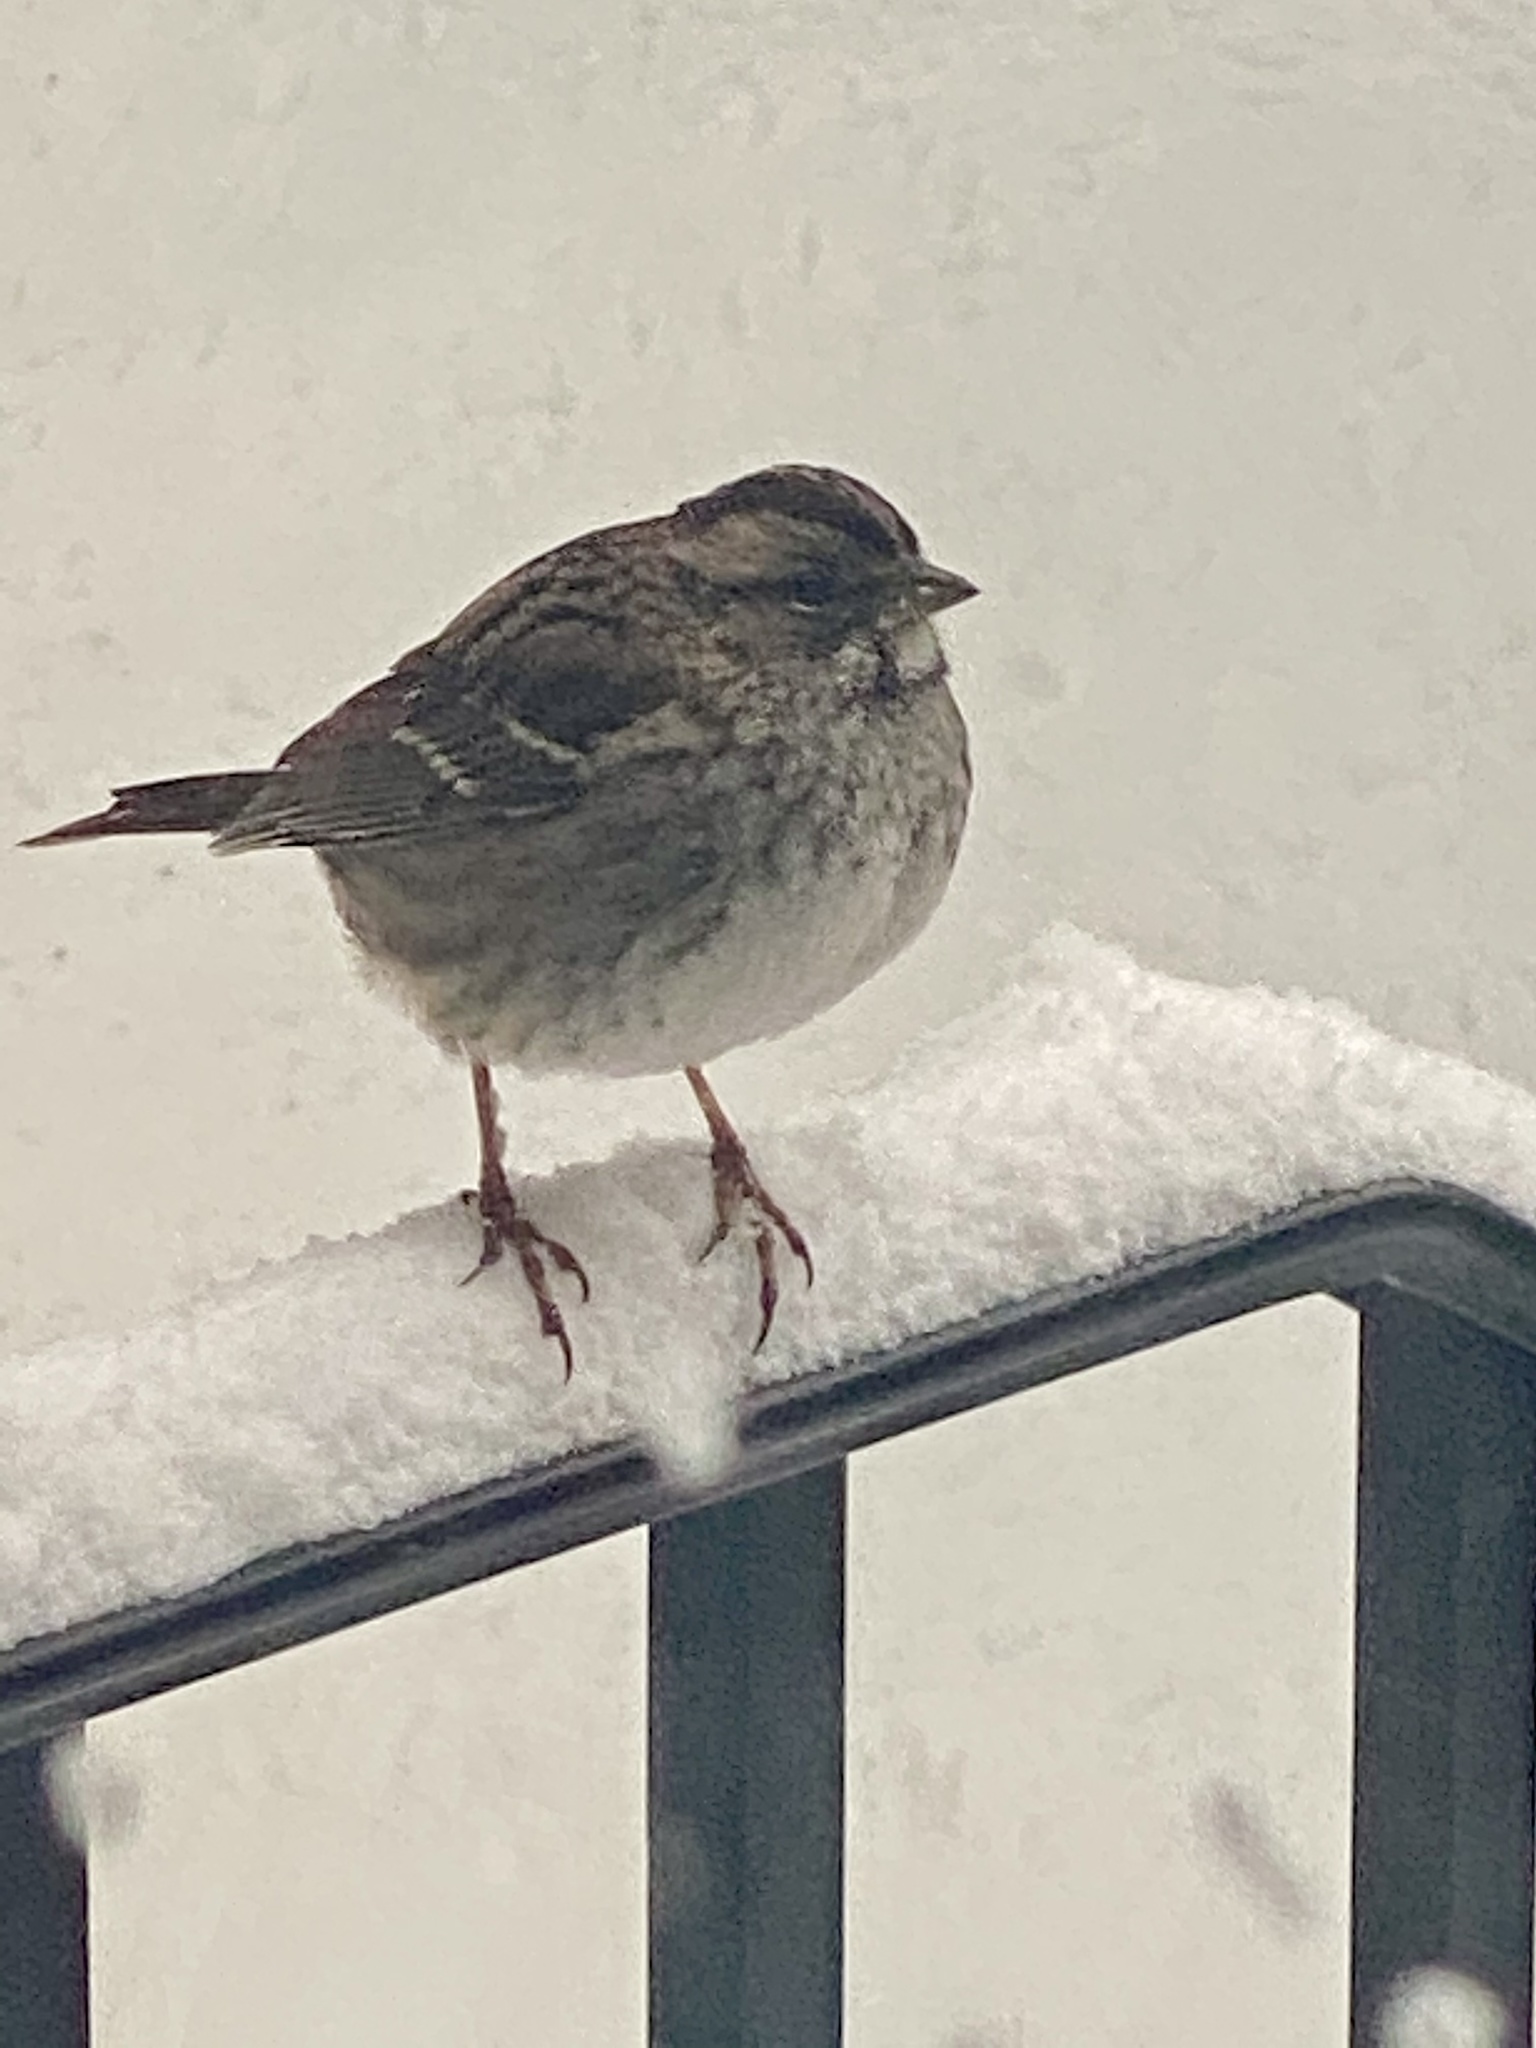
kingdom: Animalia
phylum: Chordata
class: Aves
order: Passeriformes
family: Passerellidae
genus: Zonotrichia
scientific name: Zonotrichia albicollis
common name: White-throated sparrow
